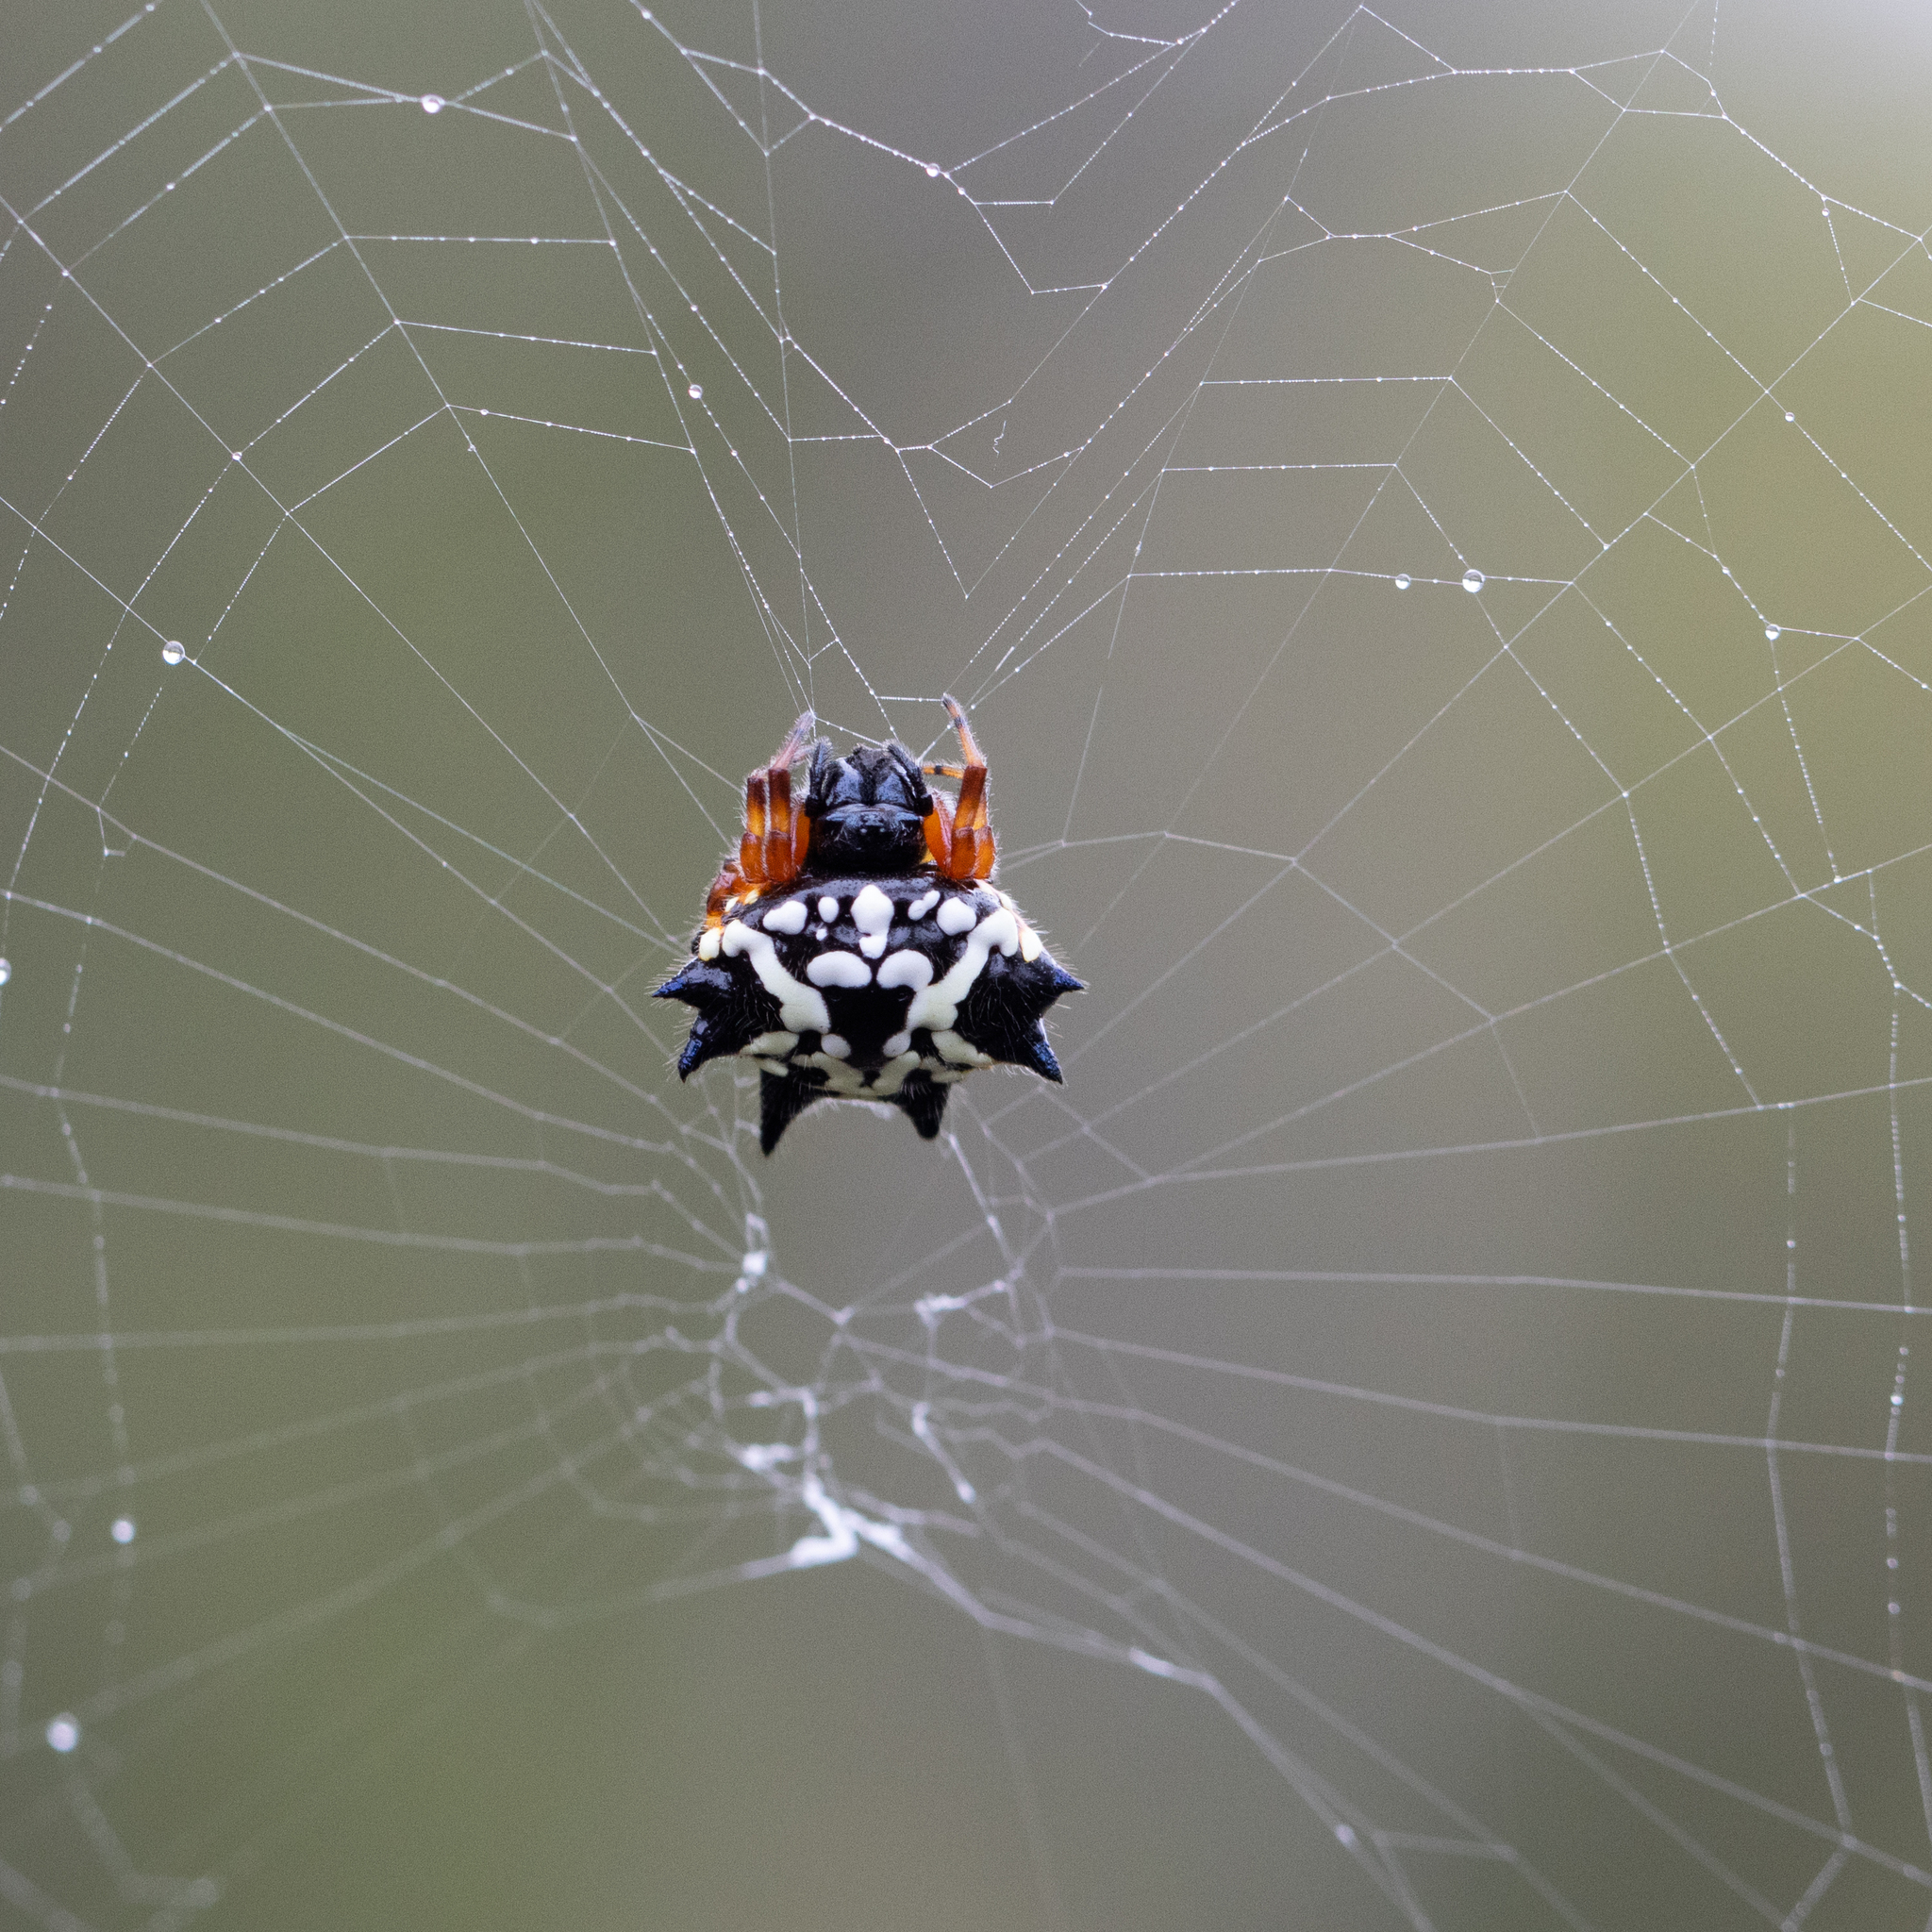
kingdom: Animalia
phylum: Arthropoda
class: Arachnida
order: Araneae
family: Araneidae
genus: Austracantha
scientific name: Austracantha minax
